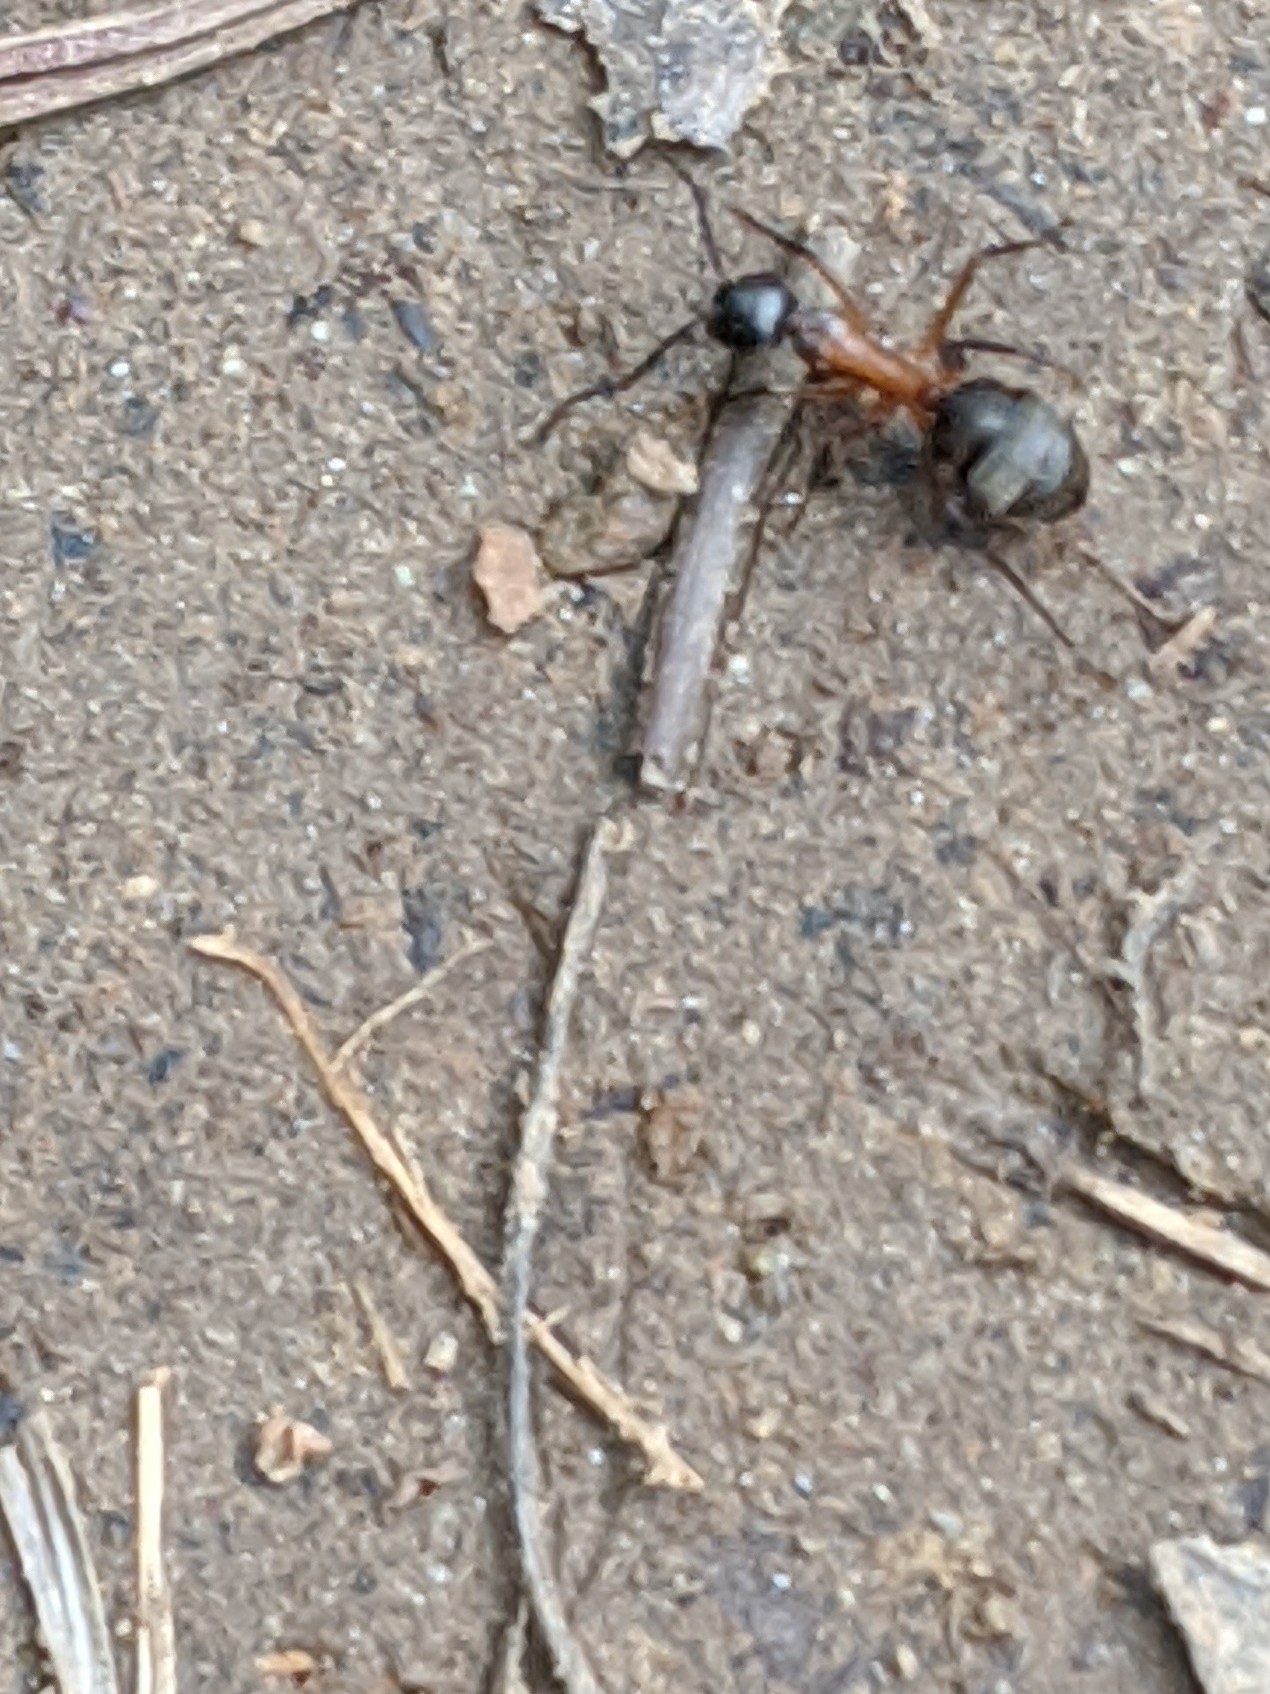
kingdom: Animalia
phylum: Arthropoda
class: Insecta
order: Hymenoptera
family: Formicidae
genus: Camponotus
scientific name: Camponotus chromaiodes
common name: Red carpenter ant
